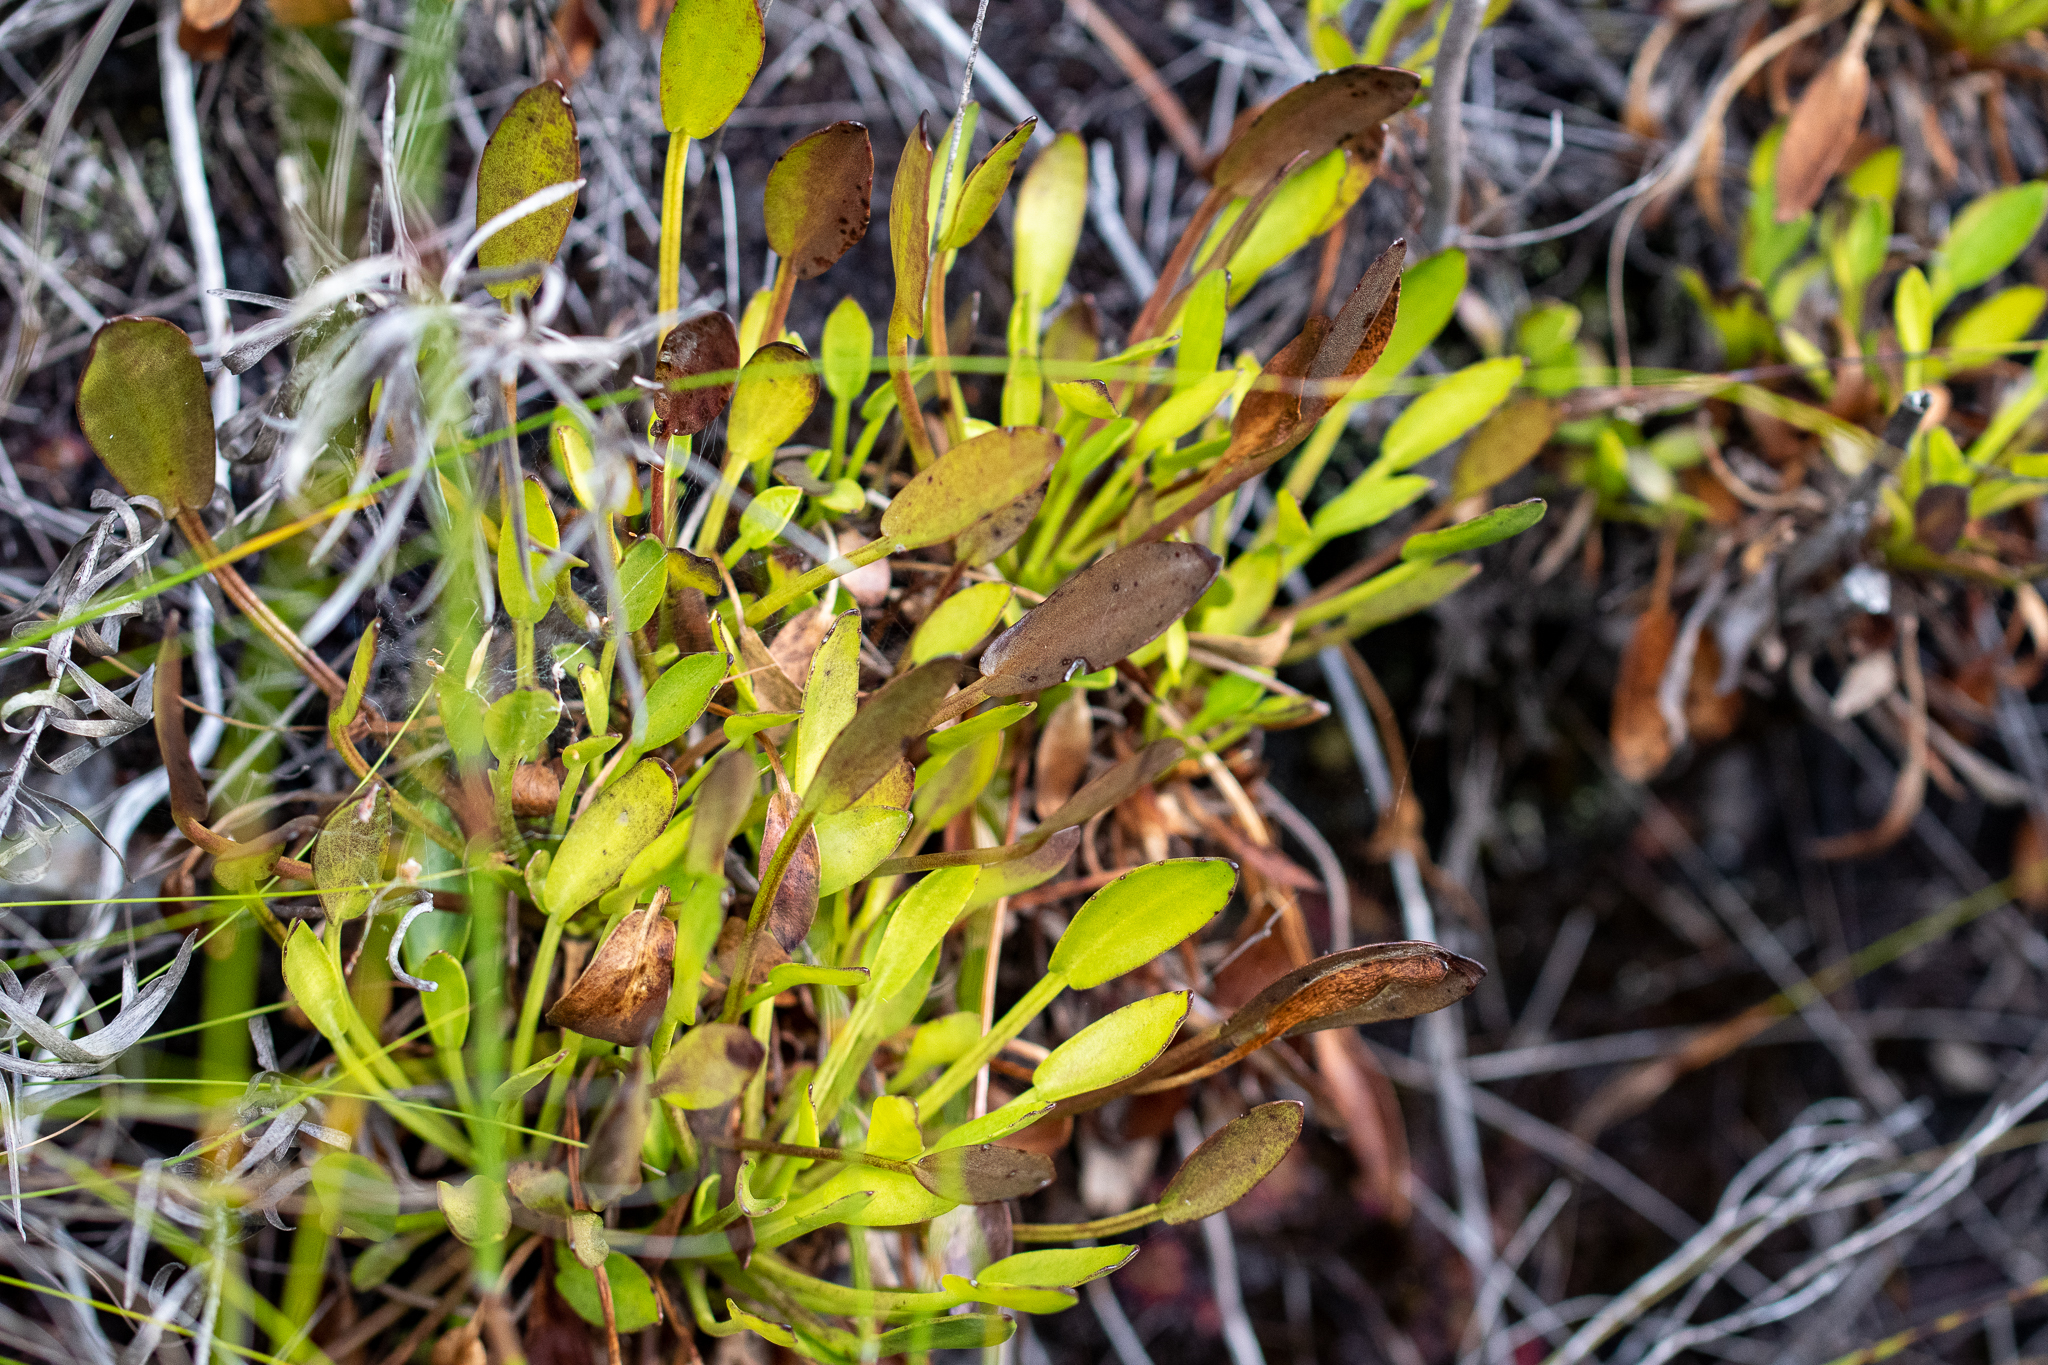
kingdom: Plantae
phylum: Tracheophyta
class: Magnoliopsida
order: Asterales
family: Menyanthaceae
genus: Villarsia
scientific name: Villarsia manningiana
